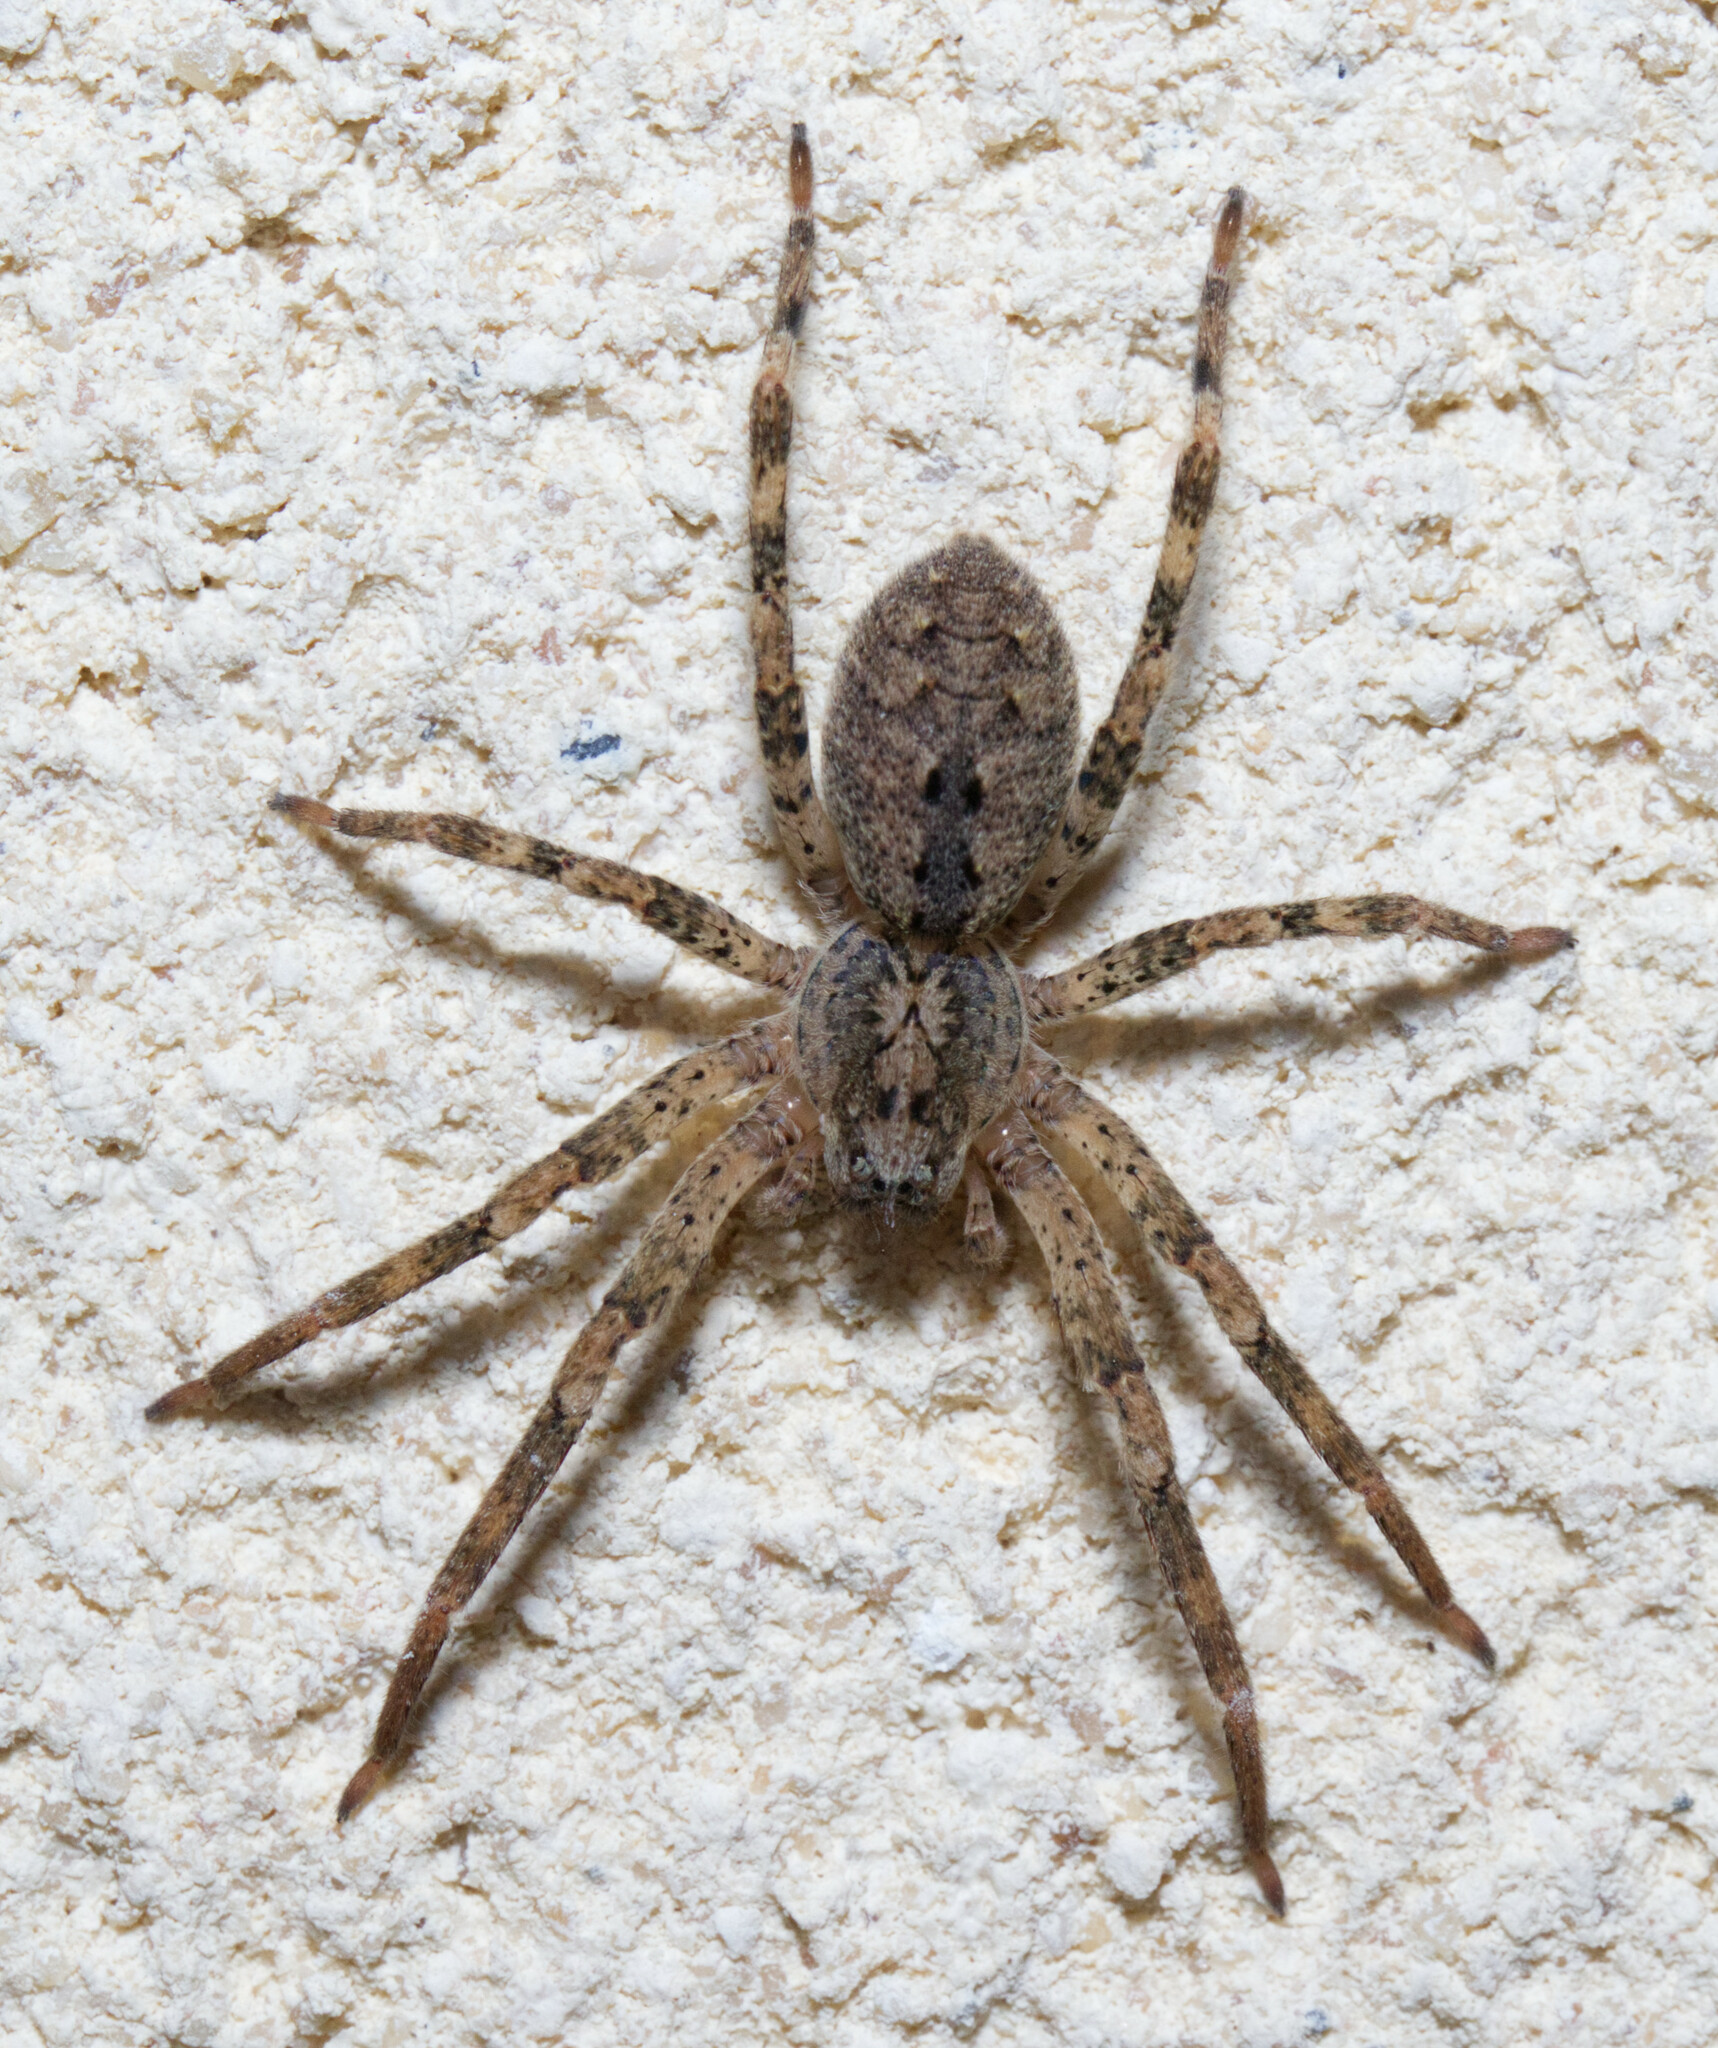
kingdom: Animalia
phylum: Arthropoda
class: Arachnida
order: Araneae
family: Zoropsidae
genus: Zoropsis
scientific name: Zoropsis spinimana
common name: Zoropsid spider
